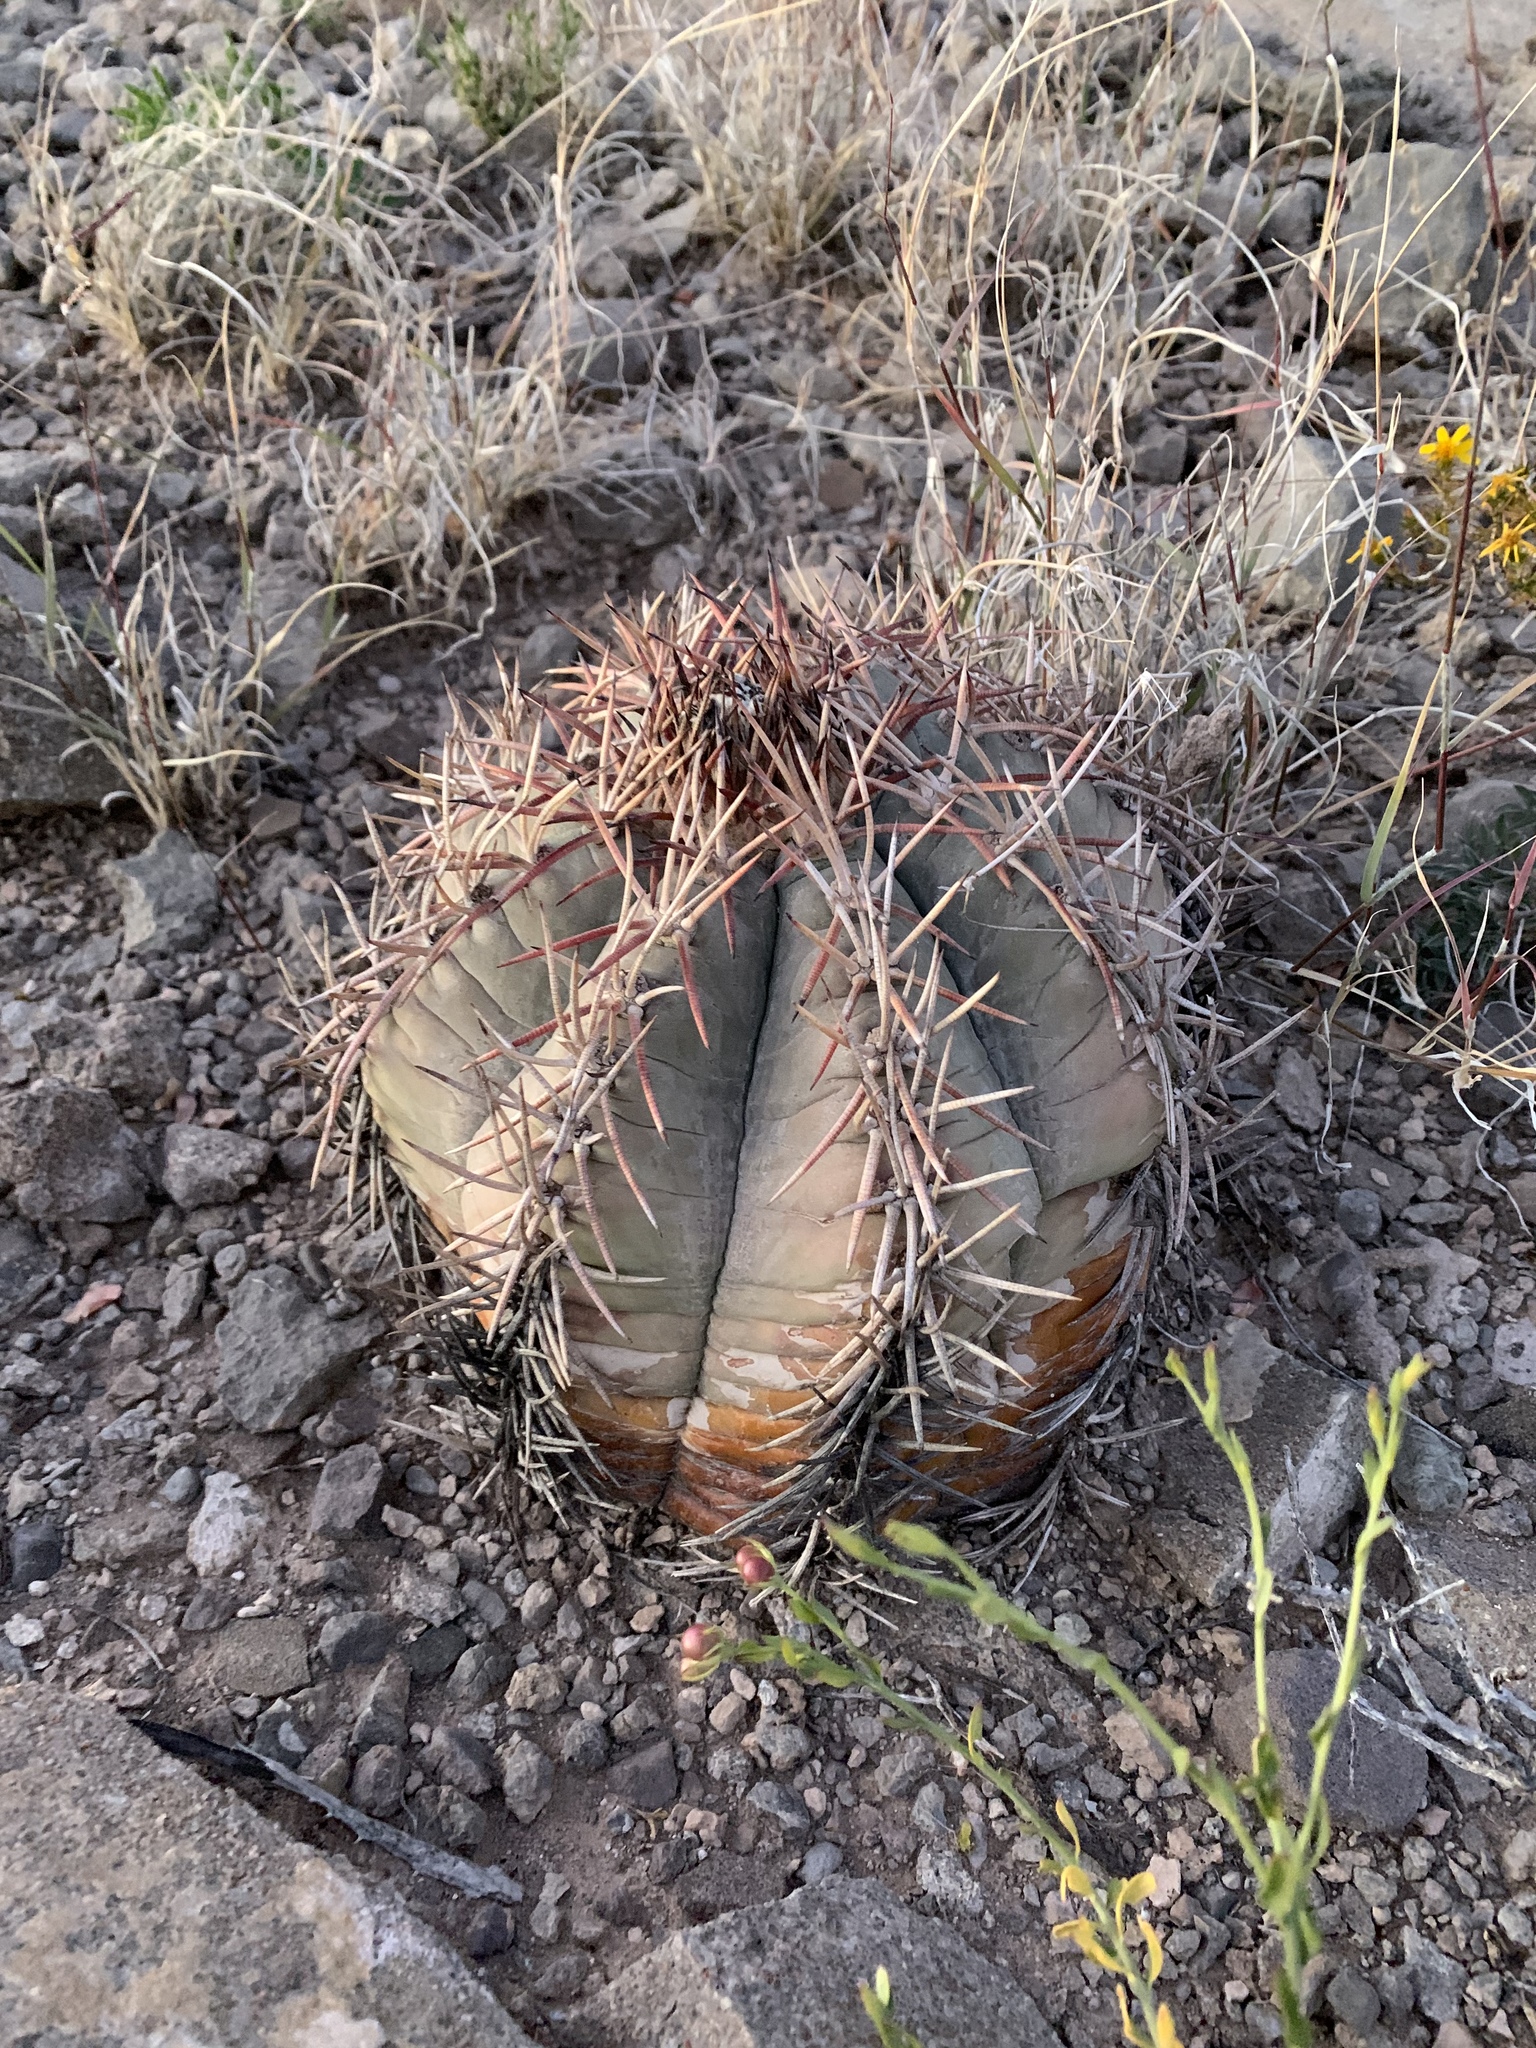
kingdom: Plantae
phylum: Tracheophyta
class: Magnoliopsida
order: Caryophyllales
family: Cactaceae
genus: Echinocactus
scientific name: Echinocactus horizonthalonius
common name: Devilshead
